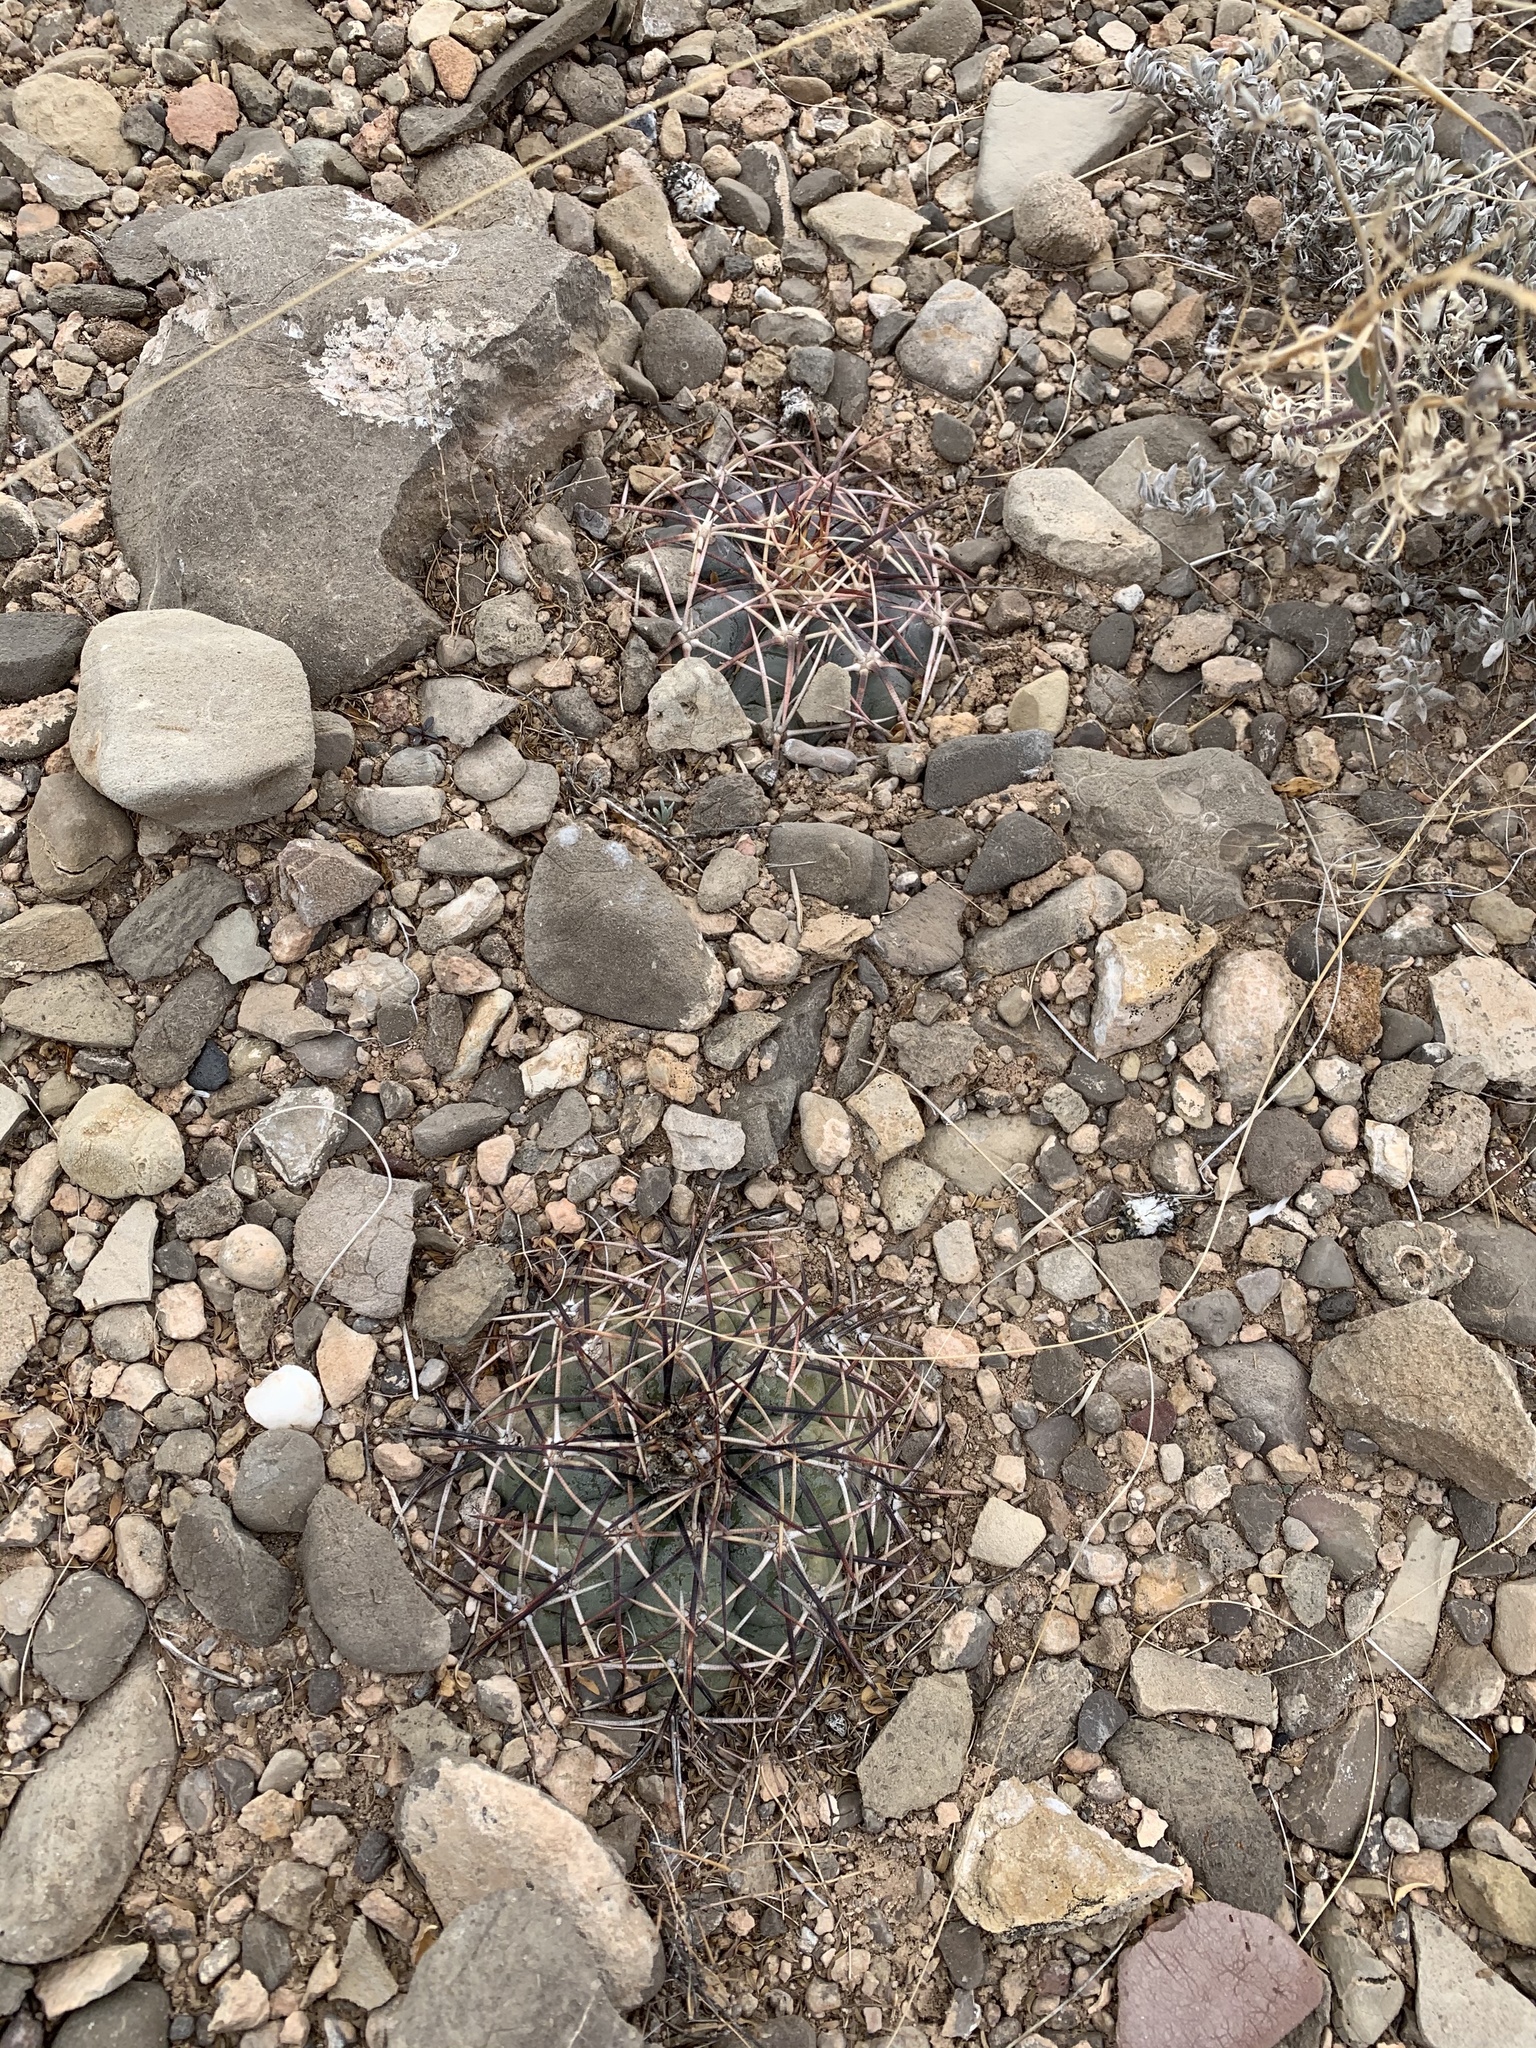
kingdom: Plantae
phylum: Tracheophyta
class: Magnoliopsida
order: Caryophyllales
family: Cactaceae
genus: Echinocactus
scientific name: Echinocactus horizonthalonius
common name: Devilshead
